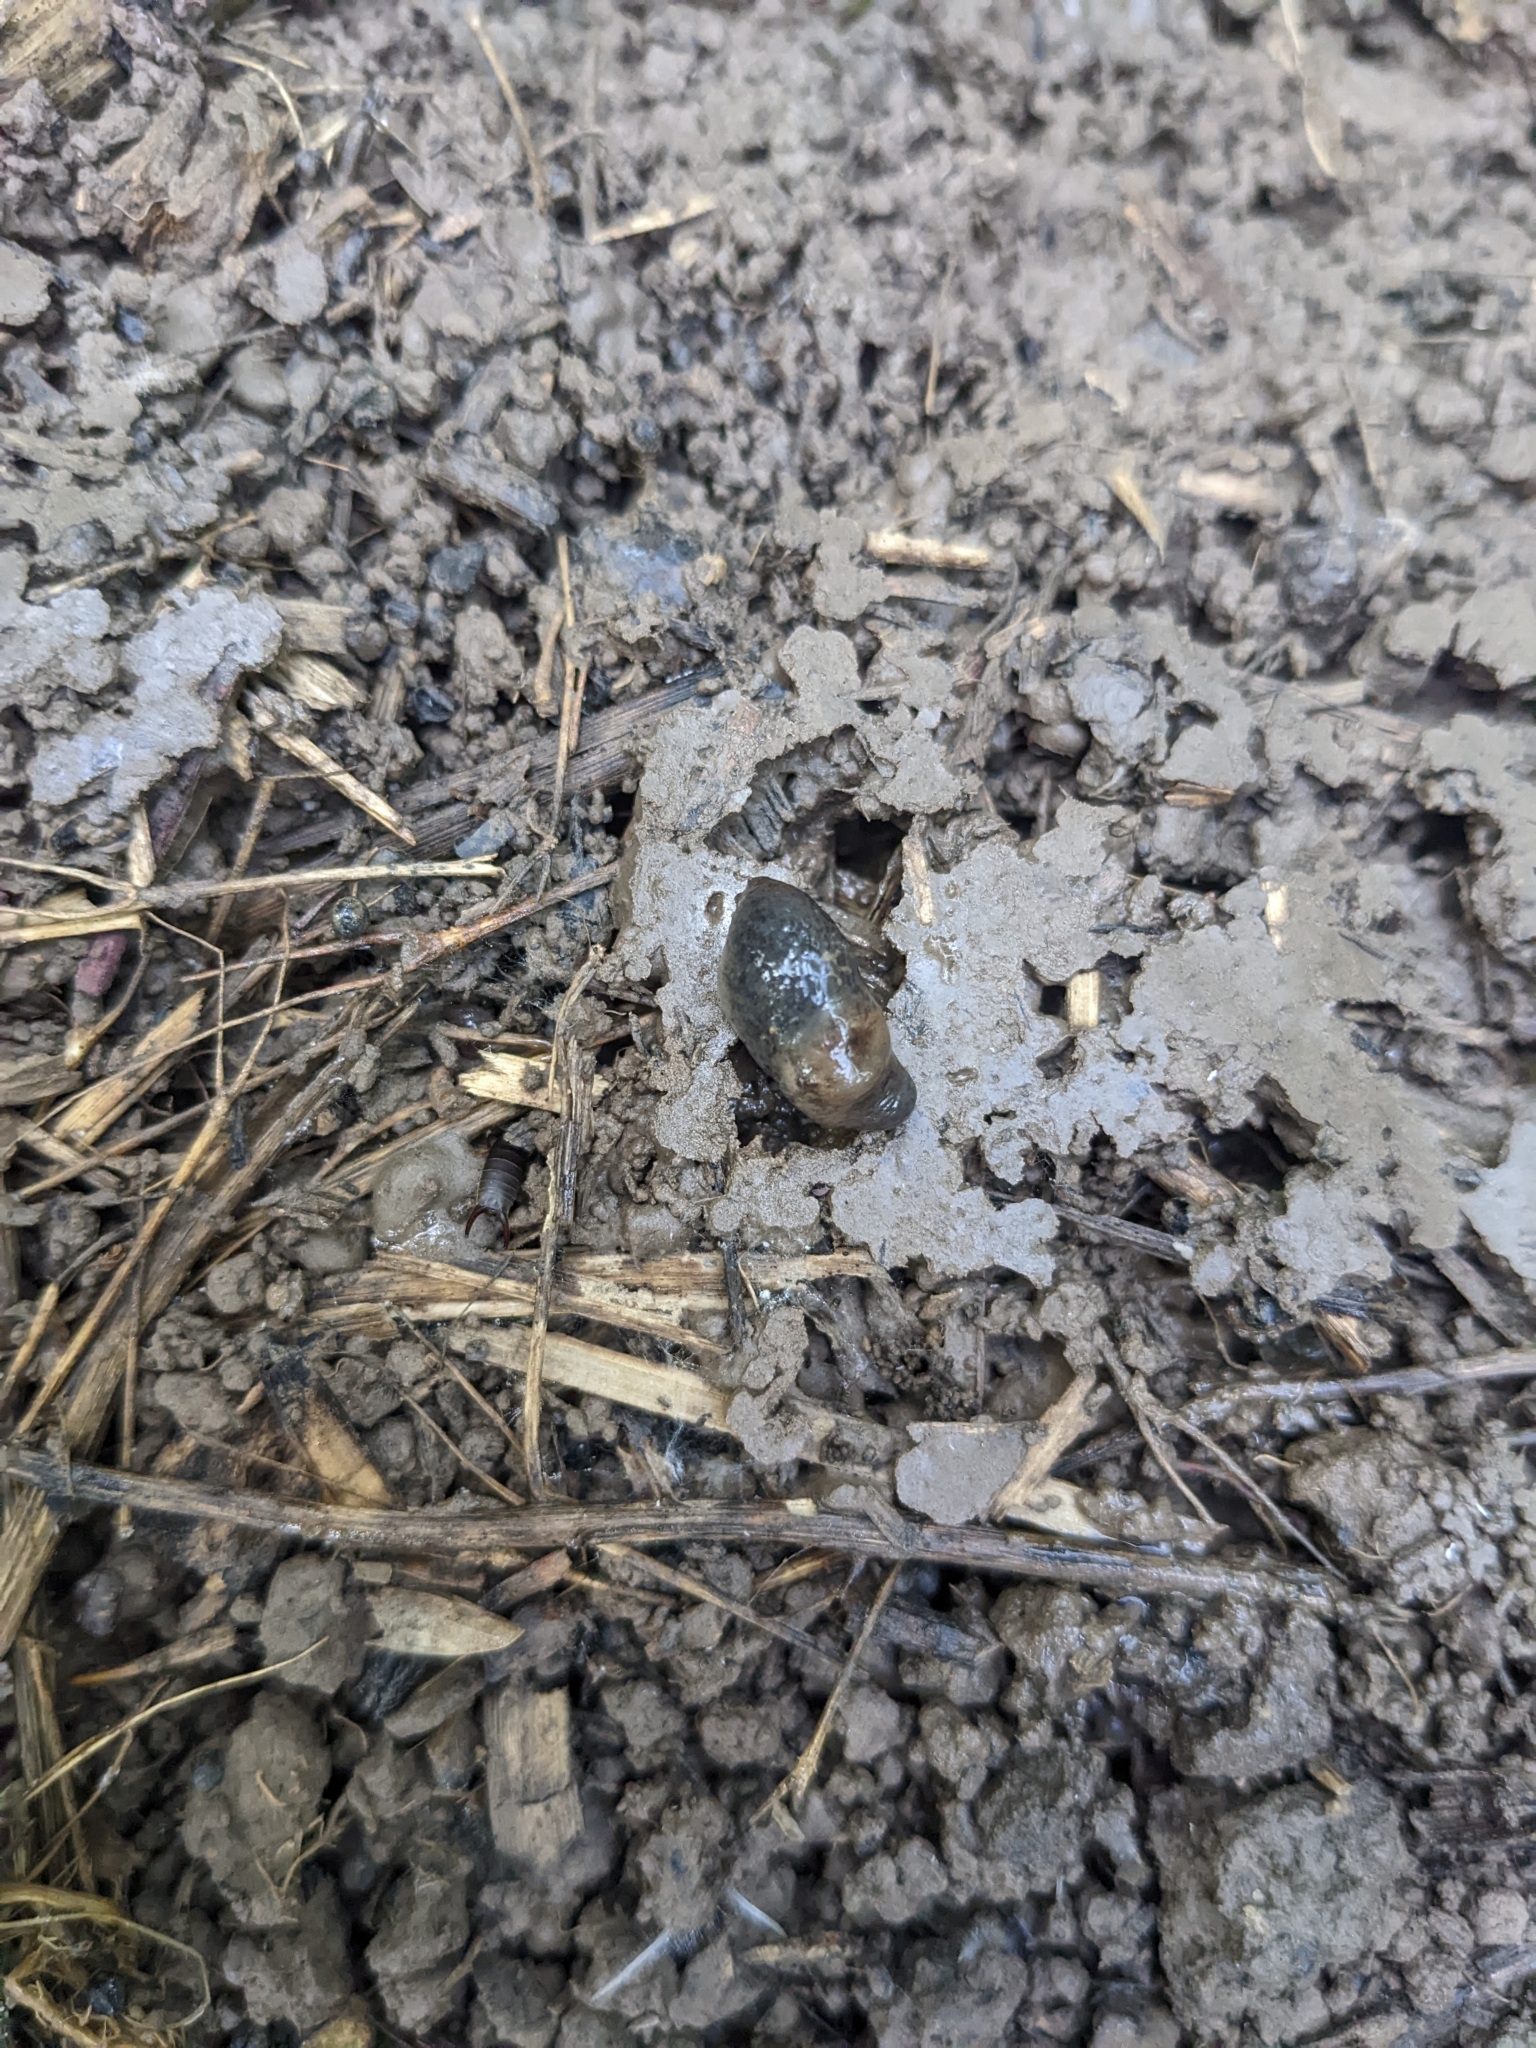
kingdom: Animalia
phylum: Mollusca
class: Gastropoda
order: Stylommatophora
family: Agriolimacidae
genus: Deroceras
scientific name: Deroceras invadens
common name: Caruana's slug
